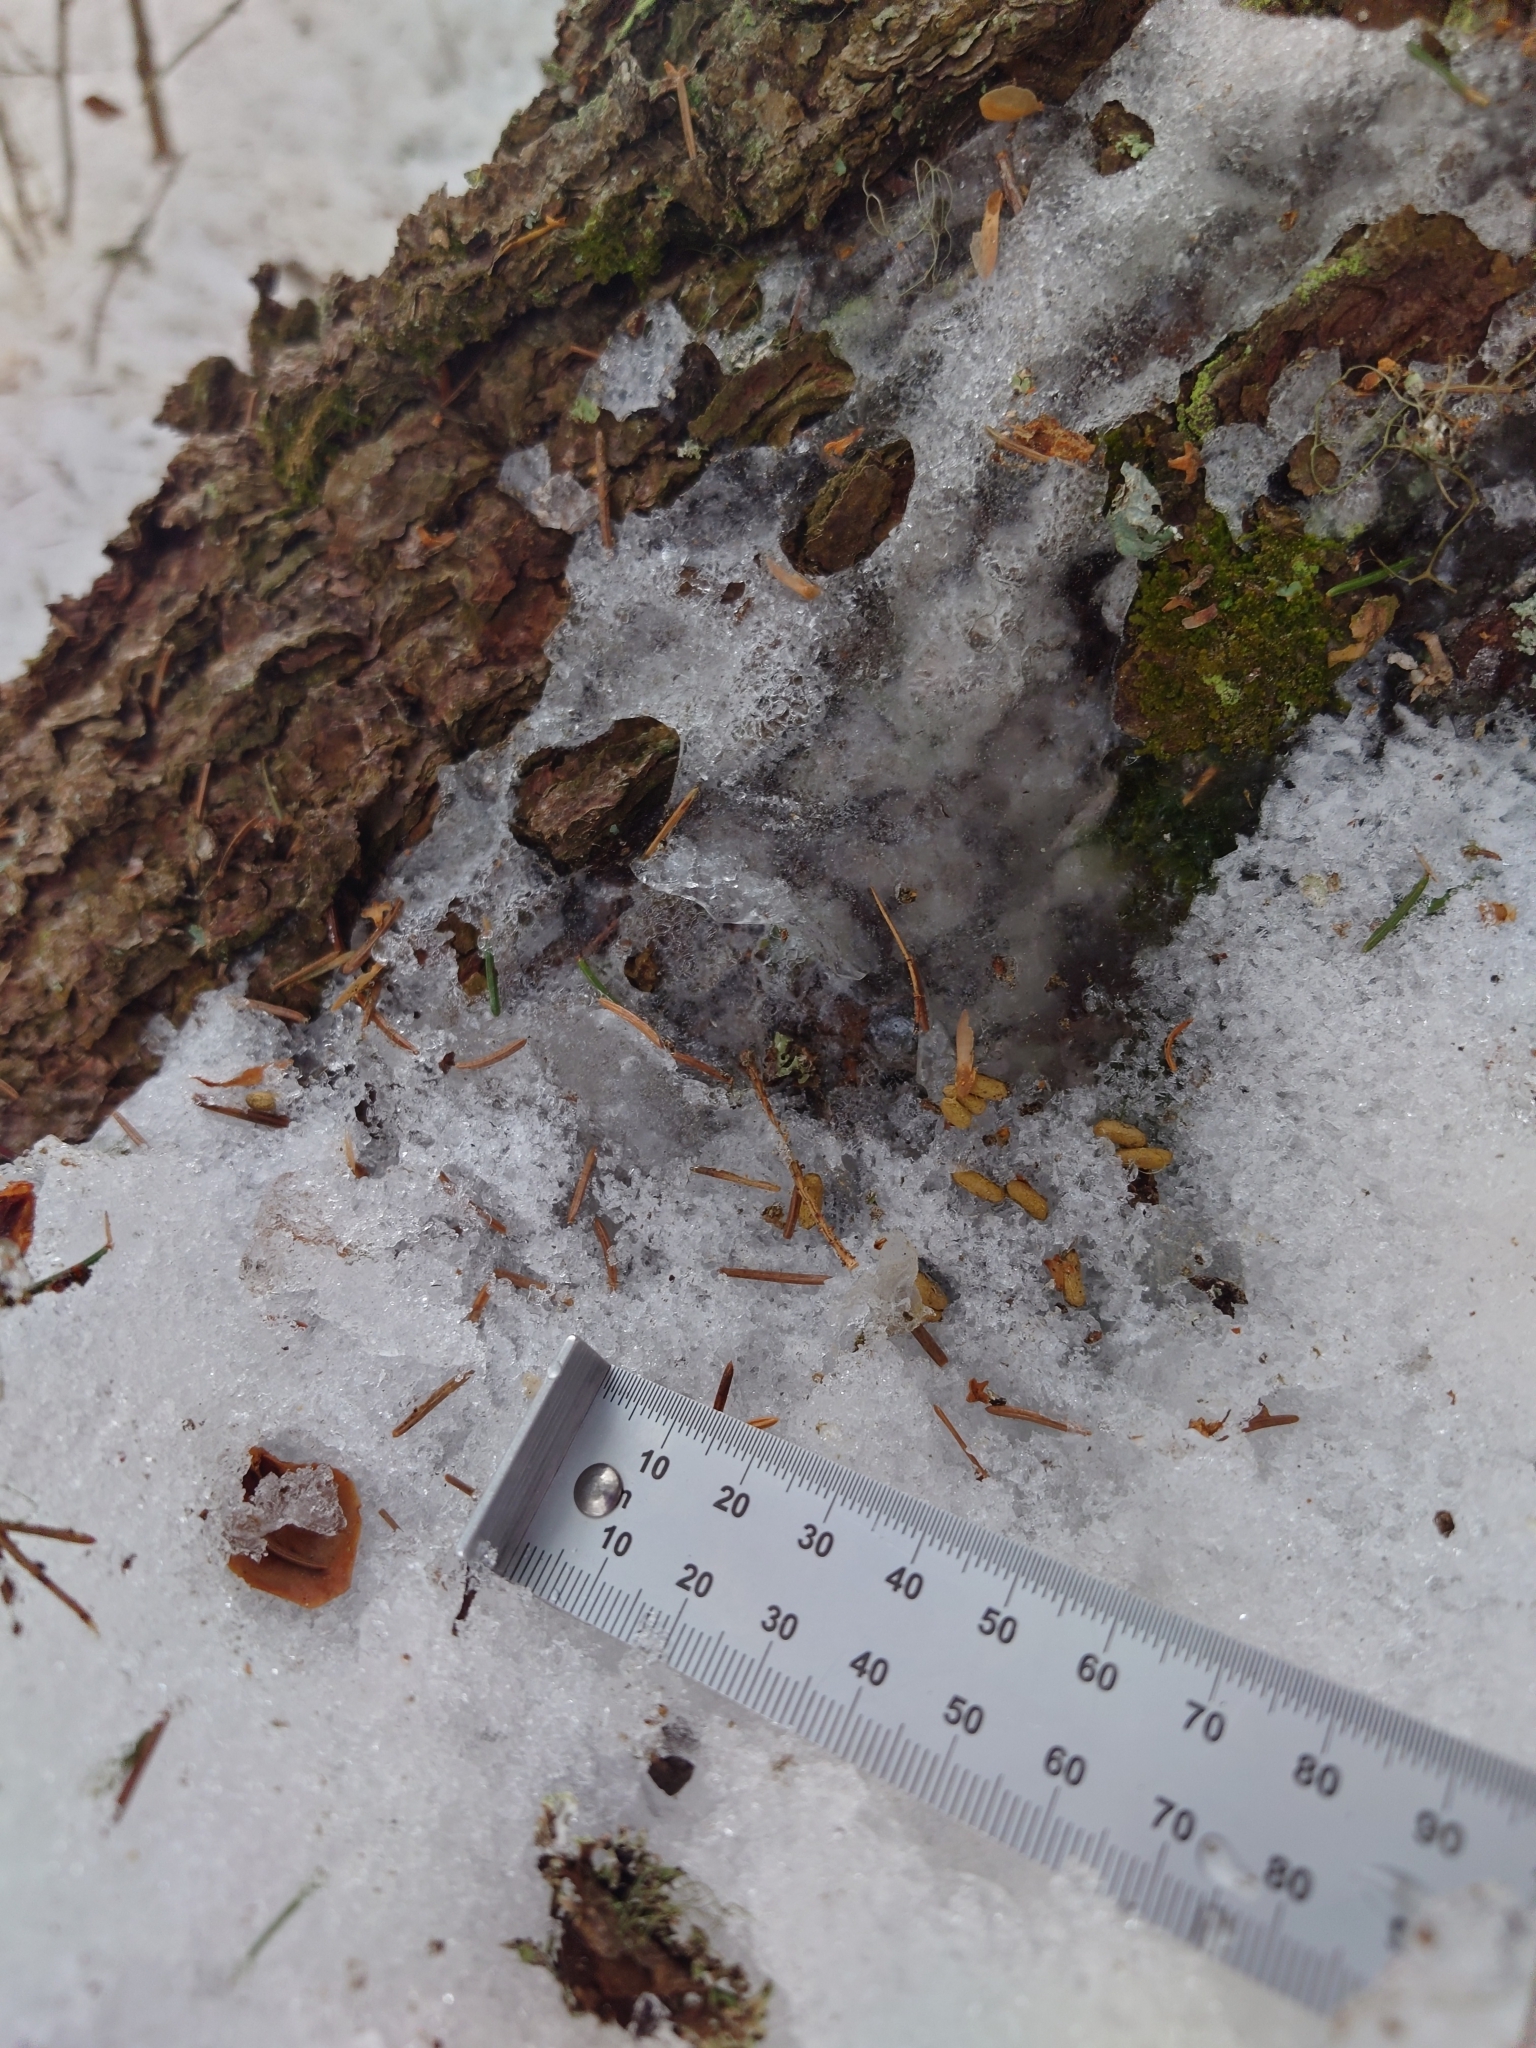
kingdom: Animalia
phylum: Chordata
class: Mammalia
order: Rodentia
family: Sciuridae
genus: Pteromys
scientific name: Pteromys volans
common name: Siberian flying squirrel
